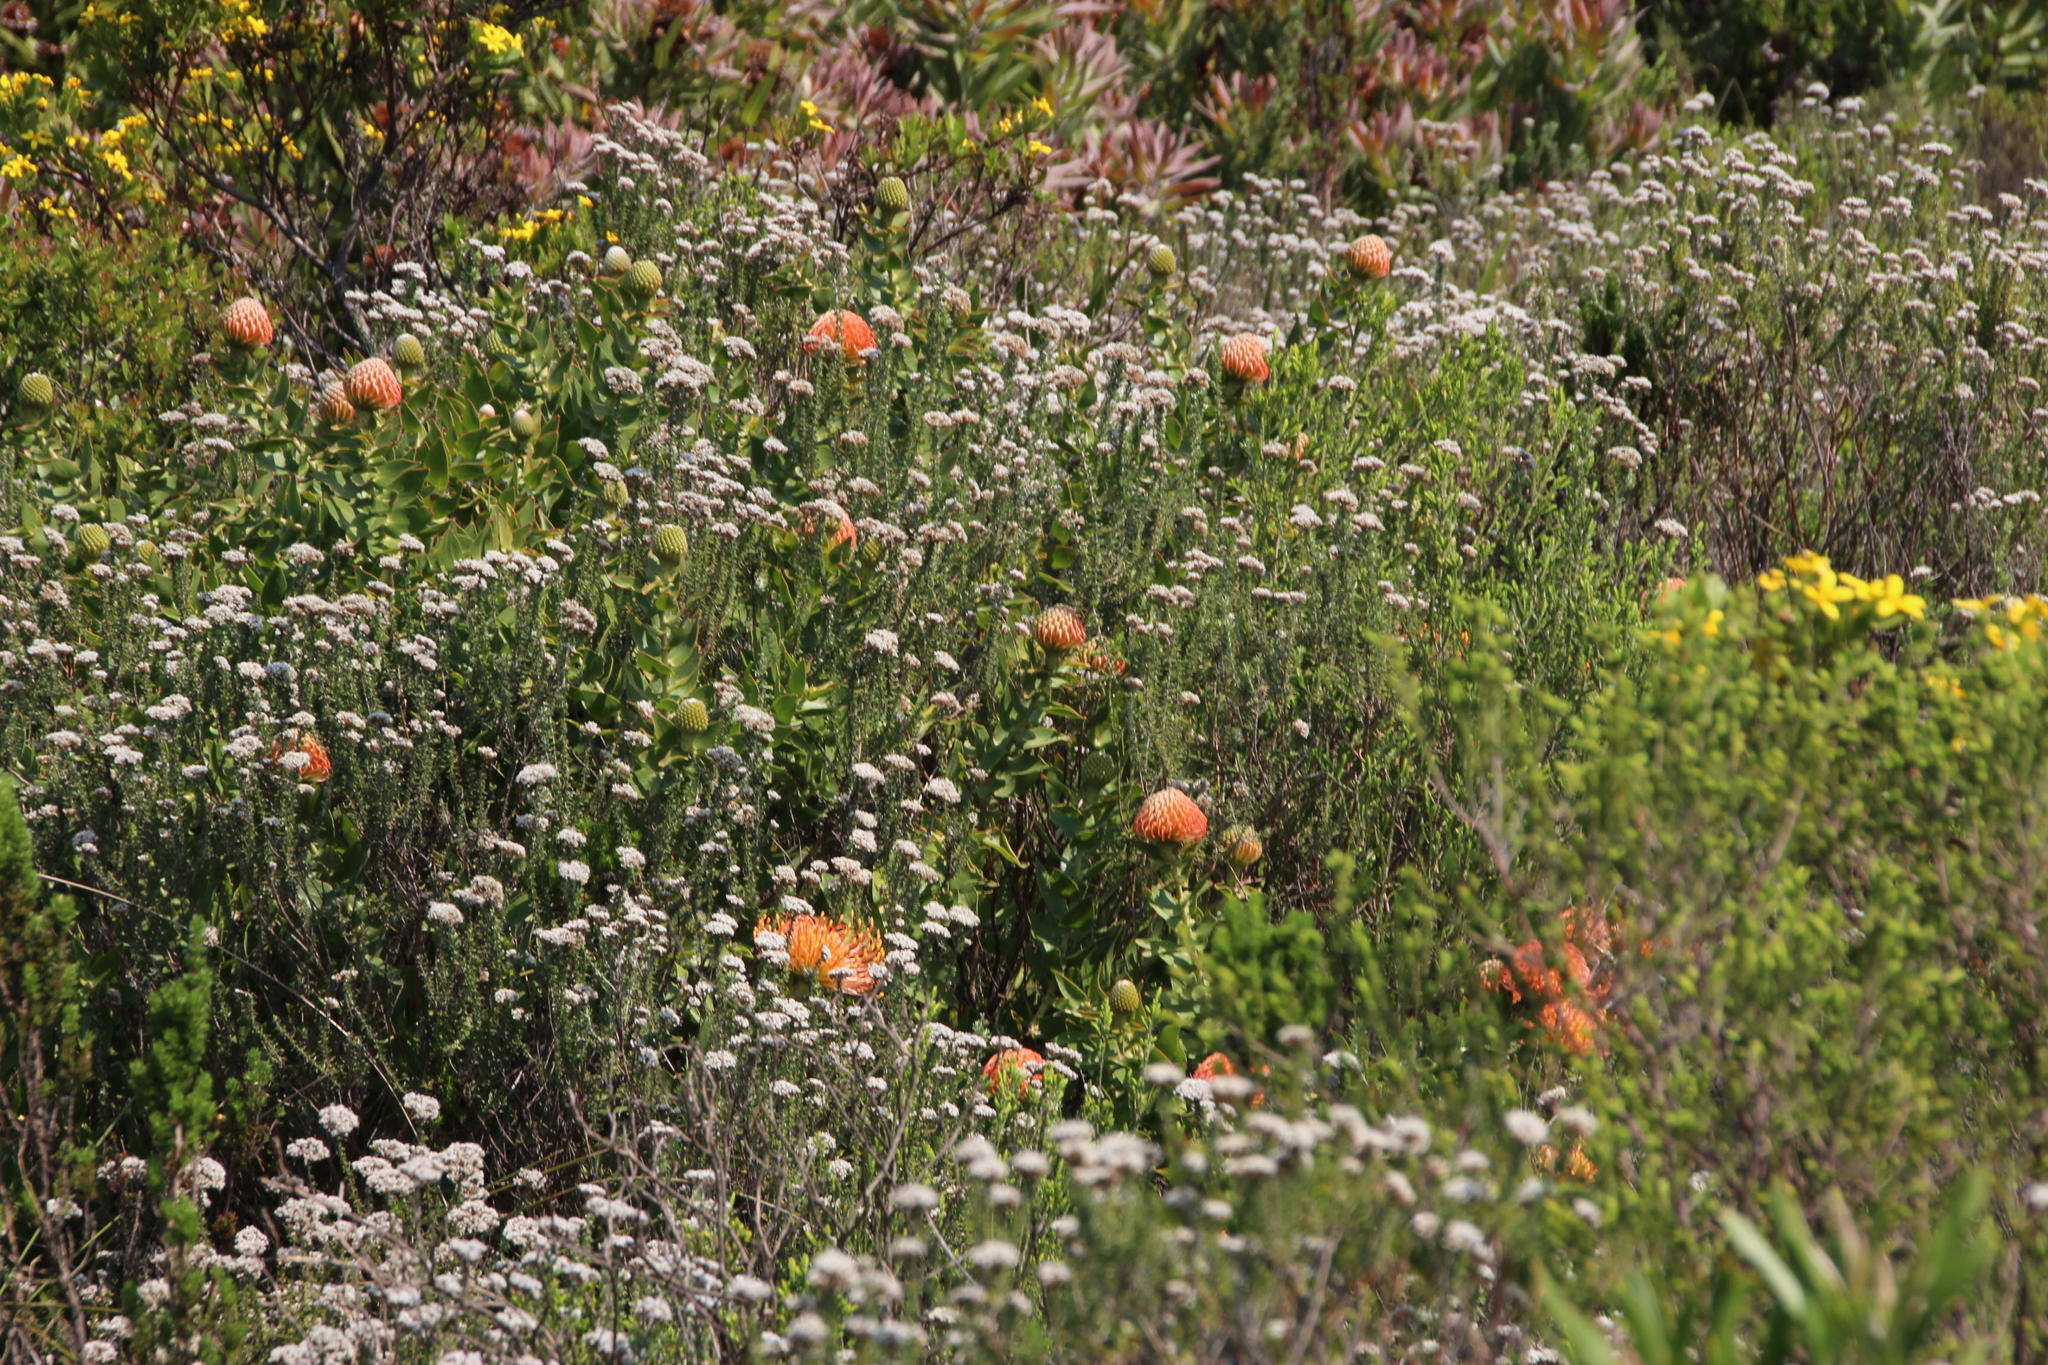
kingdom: Plantae
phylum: Tracheophyta
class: Magnoliopsida
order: Proteales
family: Proteaceae
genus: Leucospermum
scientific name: Leucospermum cordifolium
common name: Red pincushion-protea
